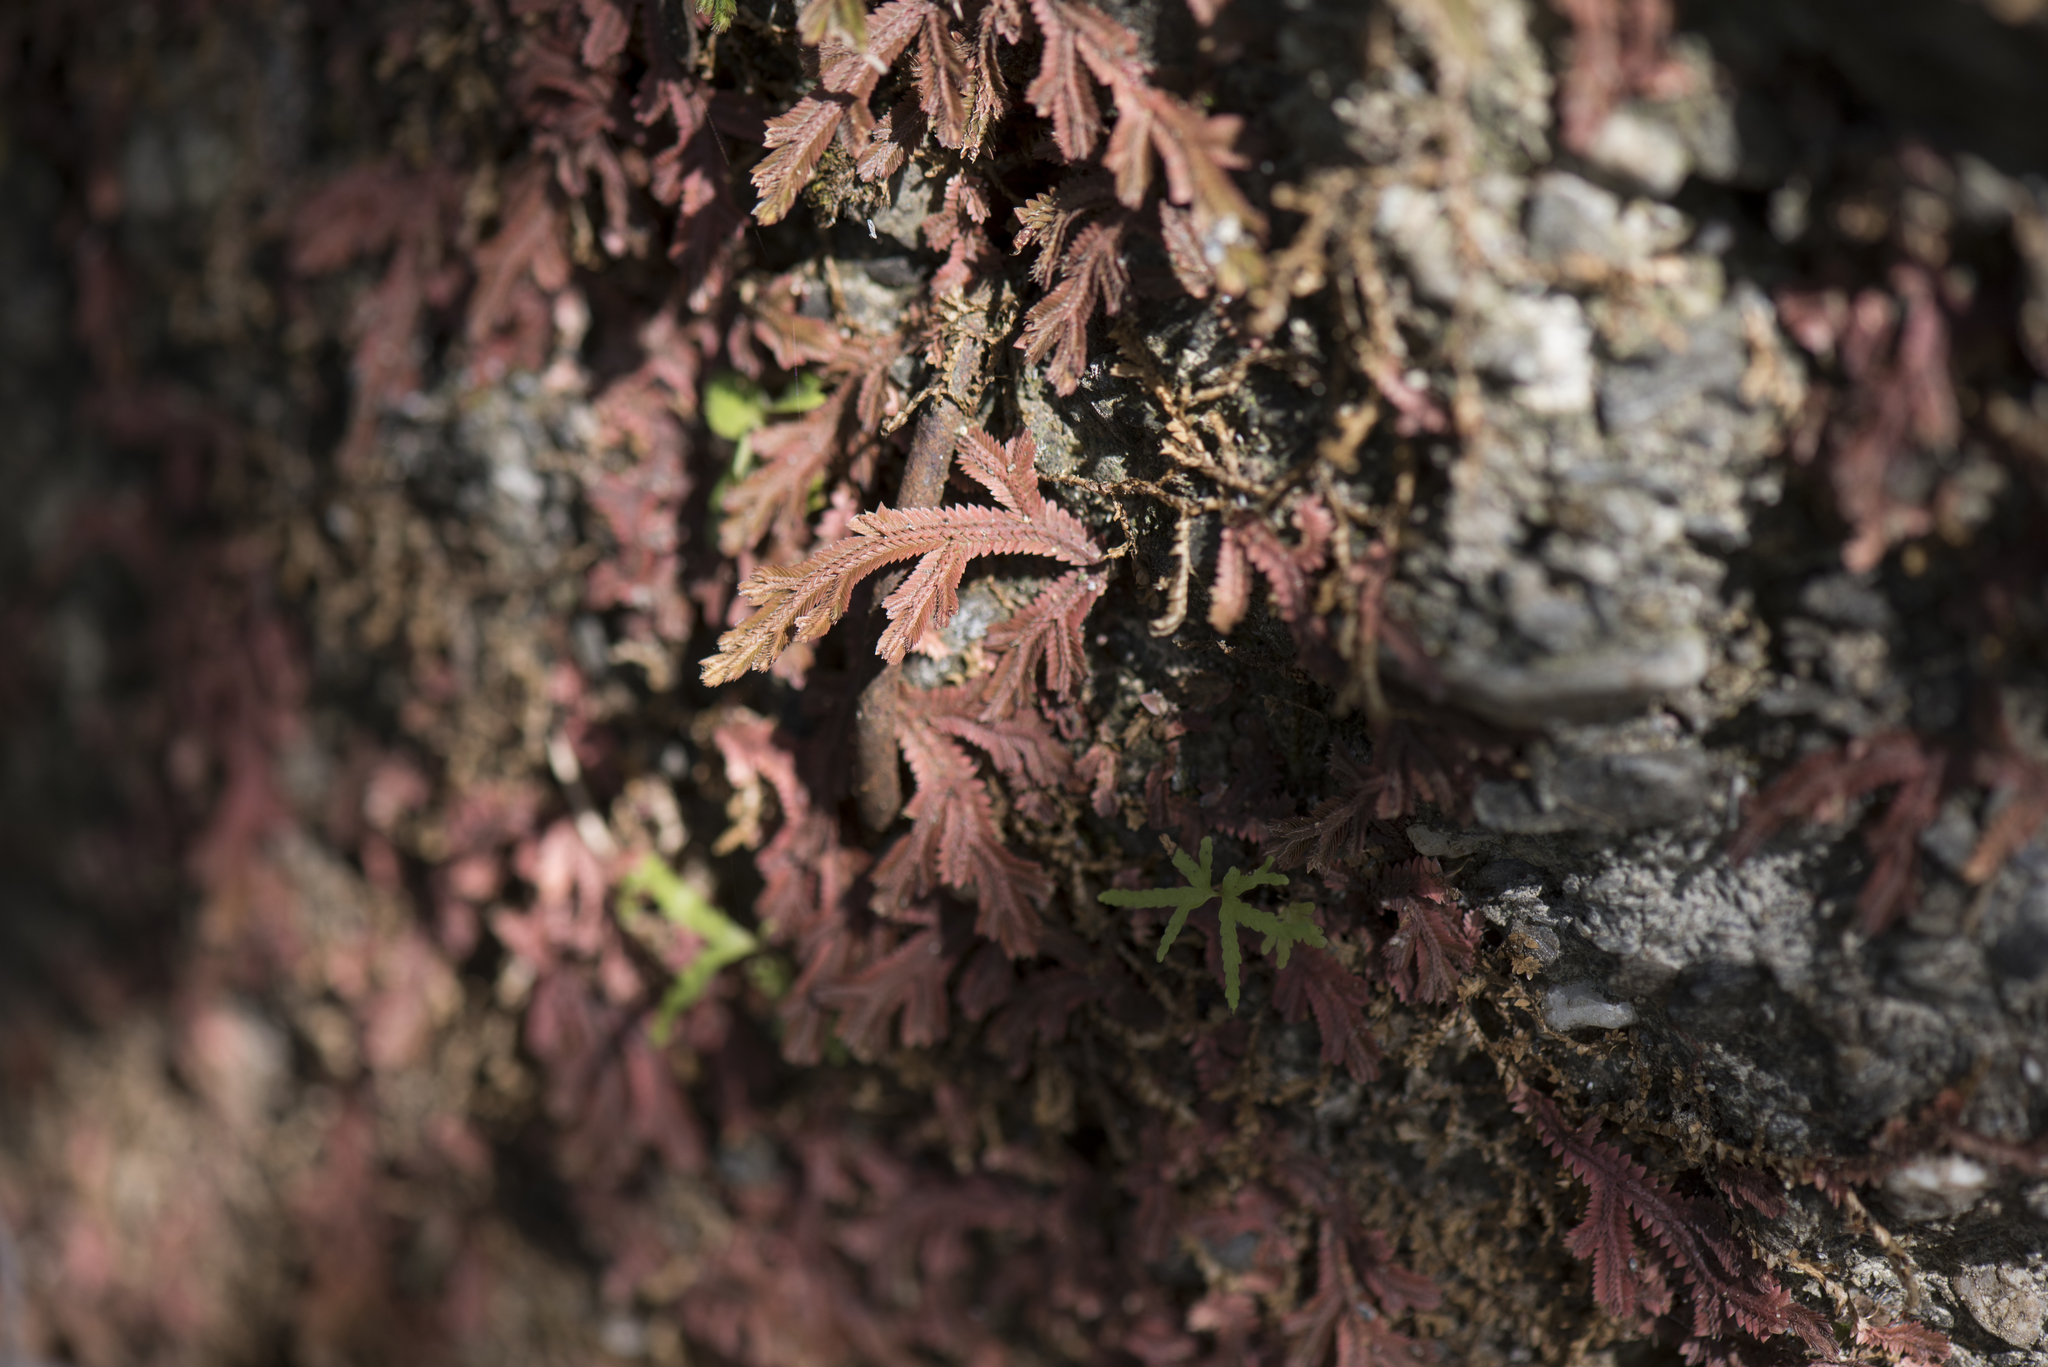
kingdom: Plantae
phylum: Tracheophyta
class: Lycopodiopsida
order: Selaginellales
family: Selaginellaceae
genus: Selaginella
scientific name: Selaginella repanda
